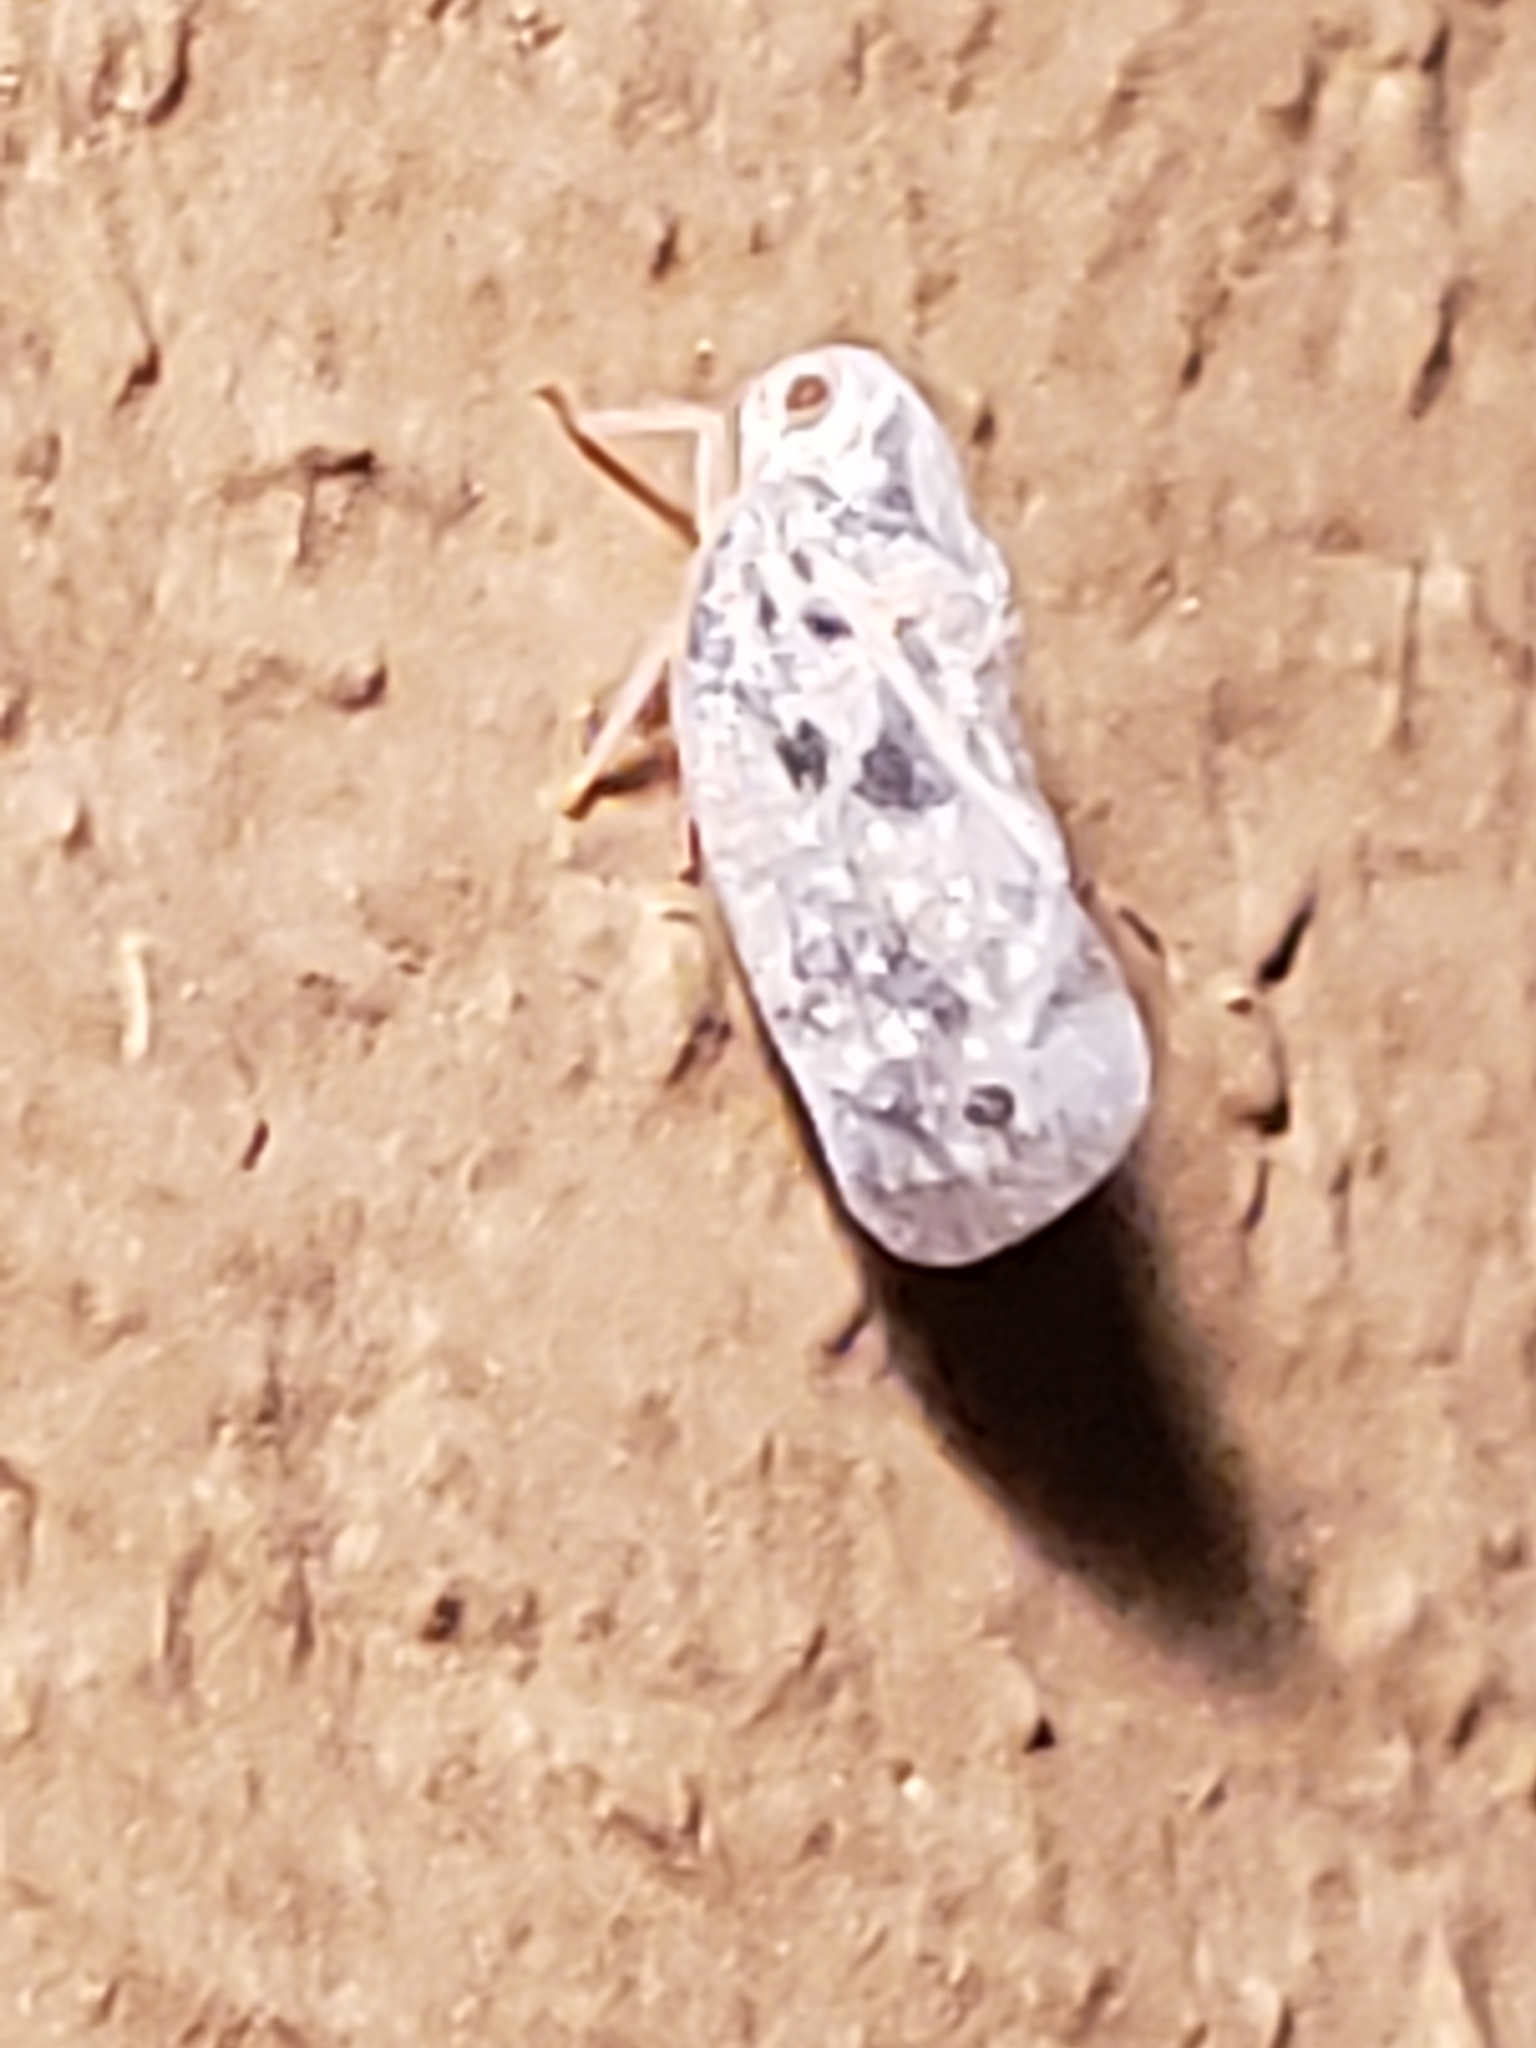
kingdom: Animalia
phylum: Arthropoda
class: Insecta
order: Hemiptera
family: Flatidae
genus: Metcalfa
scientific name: Metcalfa pruinosa
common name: Citrus flatid planthopper
